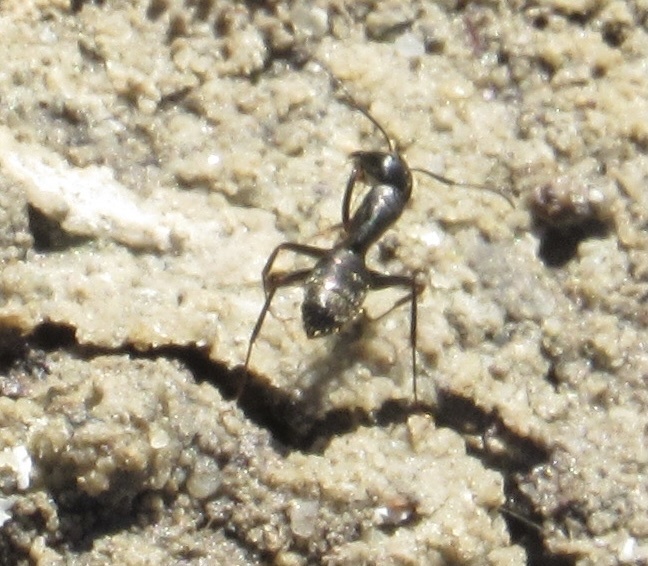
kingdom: Animalia
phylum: Arthropoda
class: Insecta
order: Hymenoptera
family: Formicidae
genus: Camponotus
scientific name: Camponotus pennsylvanicus
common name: Black carpenter ant
